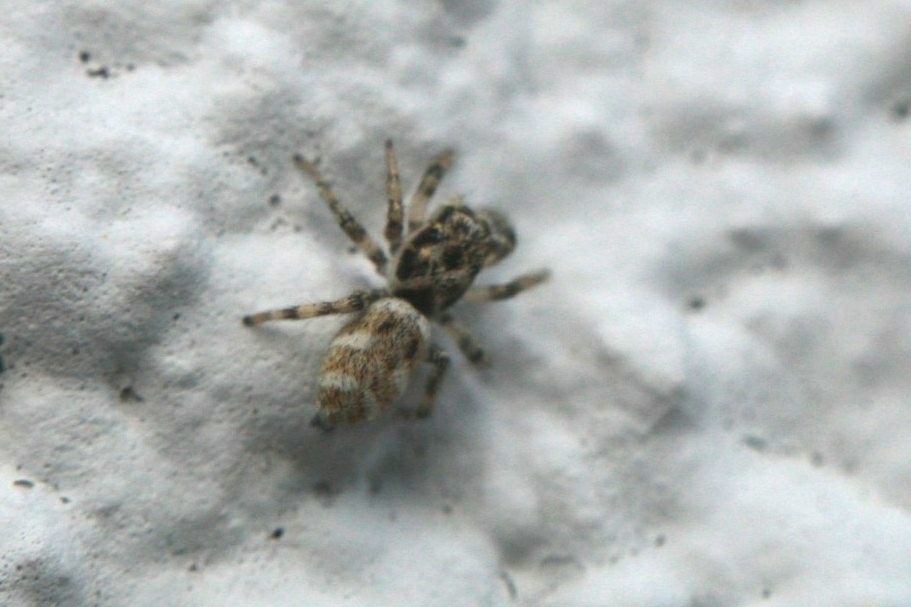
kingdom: Animalia
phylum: Arthropoda
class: Arachnida
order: Araneae
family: Salticidae
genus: Salticus
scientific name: Salticus scenicus
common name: Zebra jumper
